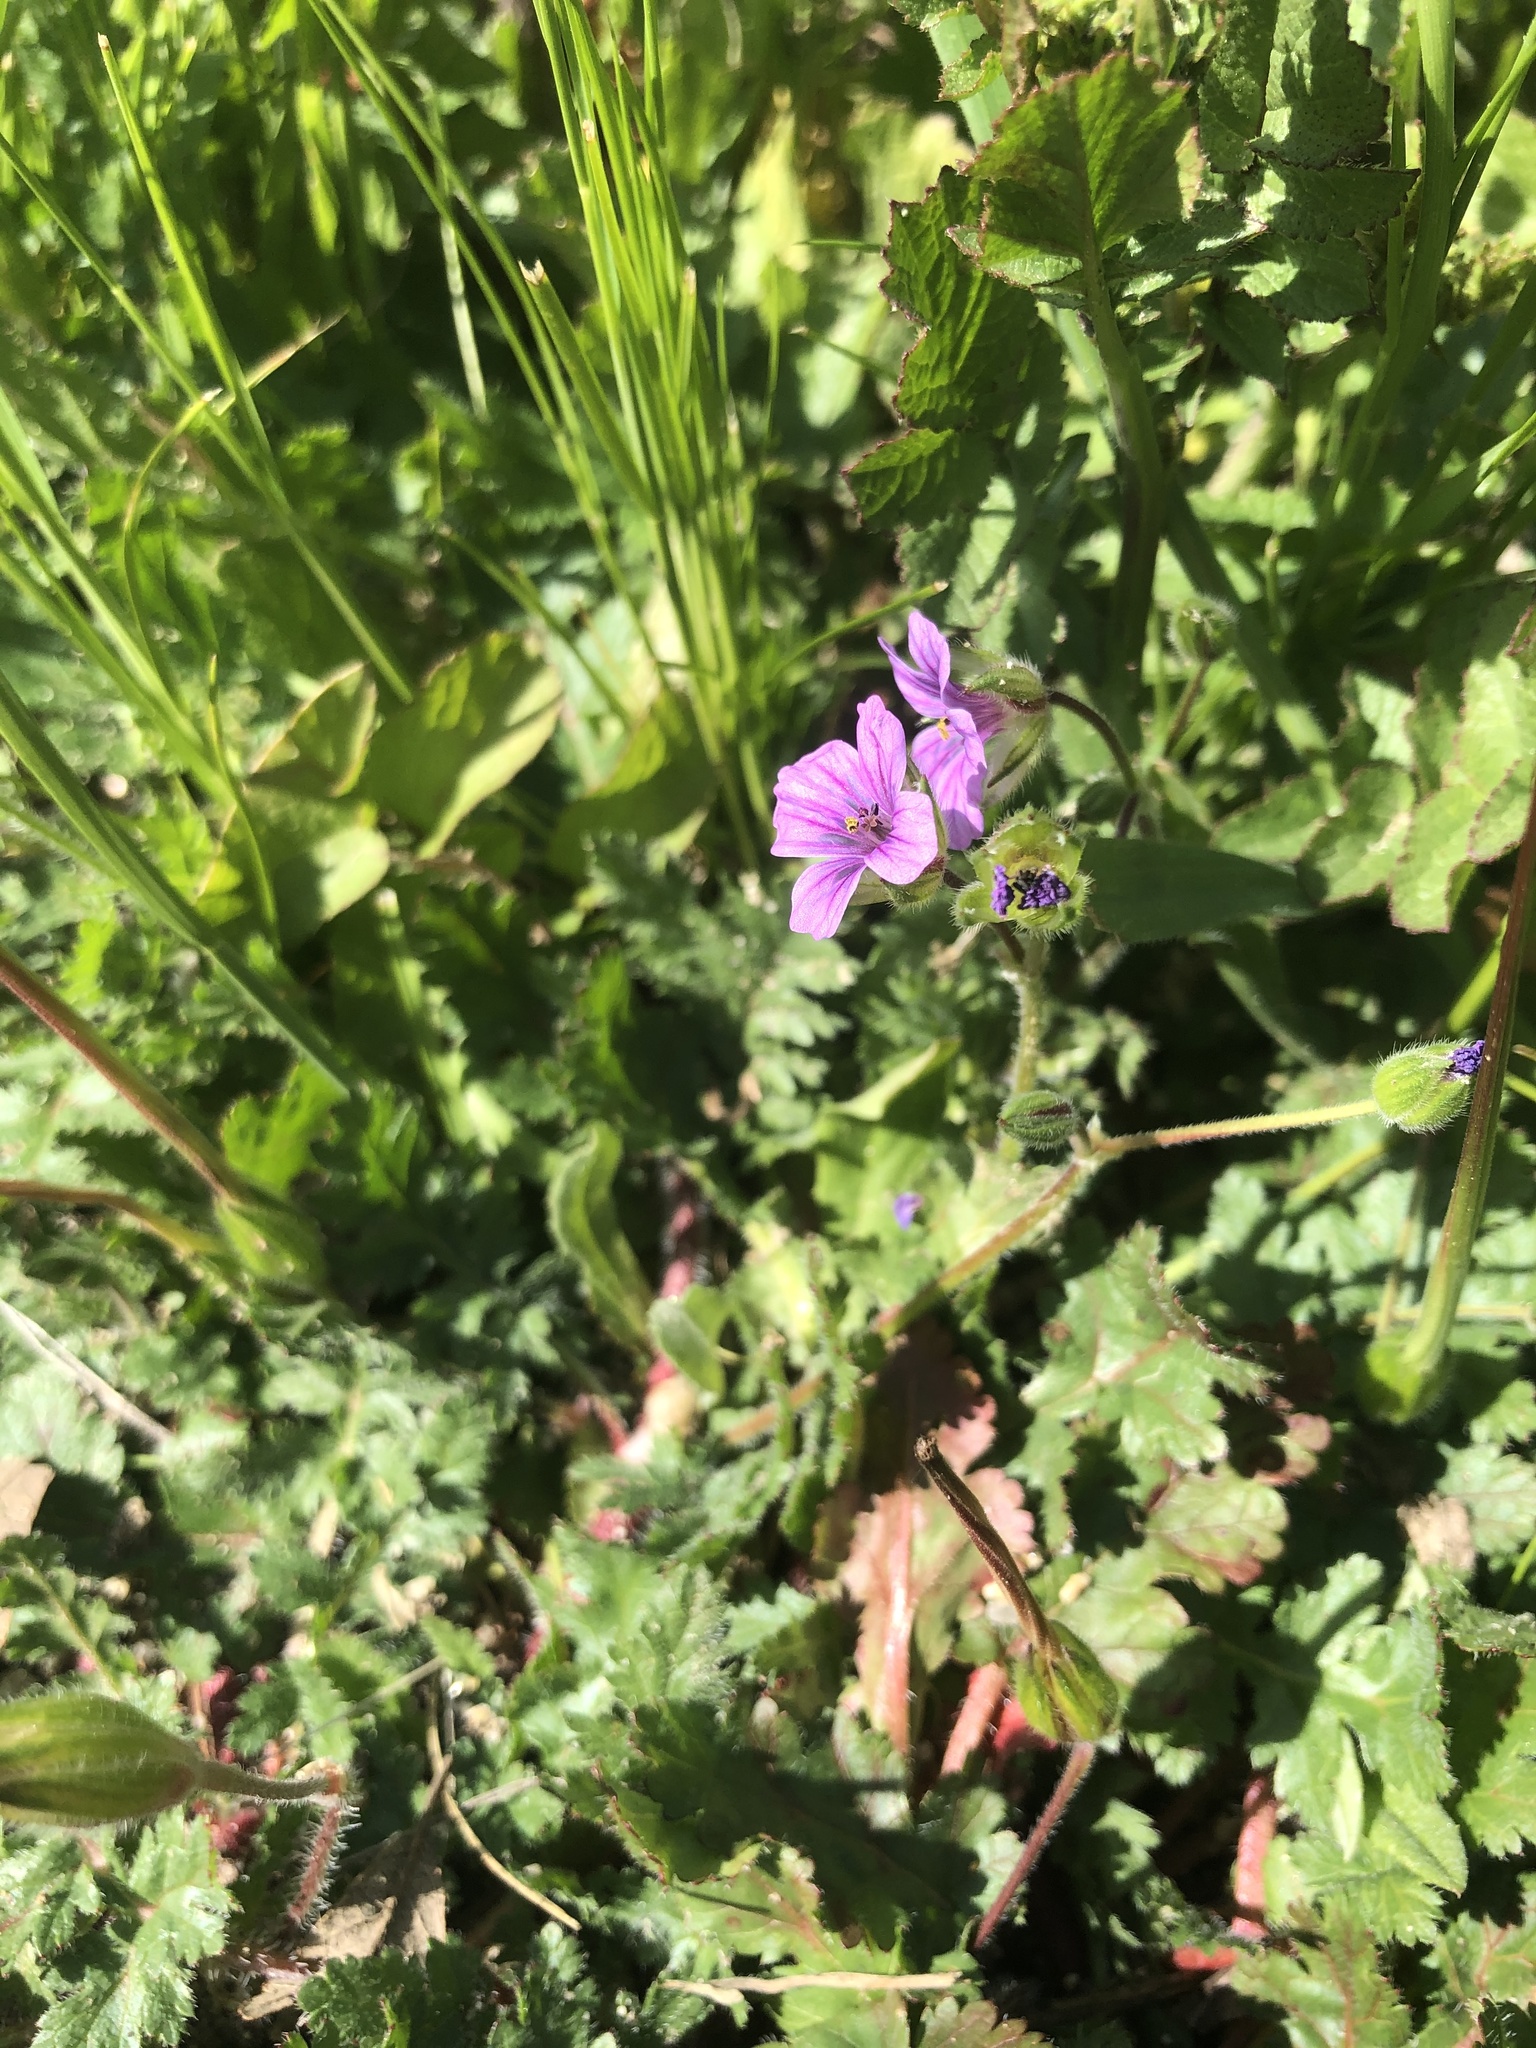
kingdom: Plantae
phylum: Tracheophyta
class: Magnoliopsida
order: Geraniales
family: Geraniaceae
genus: Erodium
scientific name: Erodium botrys
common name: Mediterranean stork's-bill
